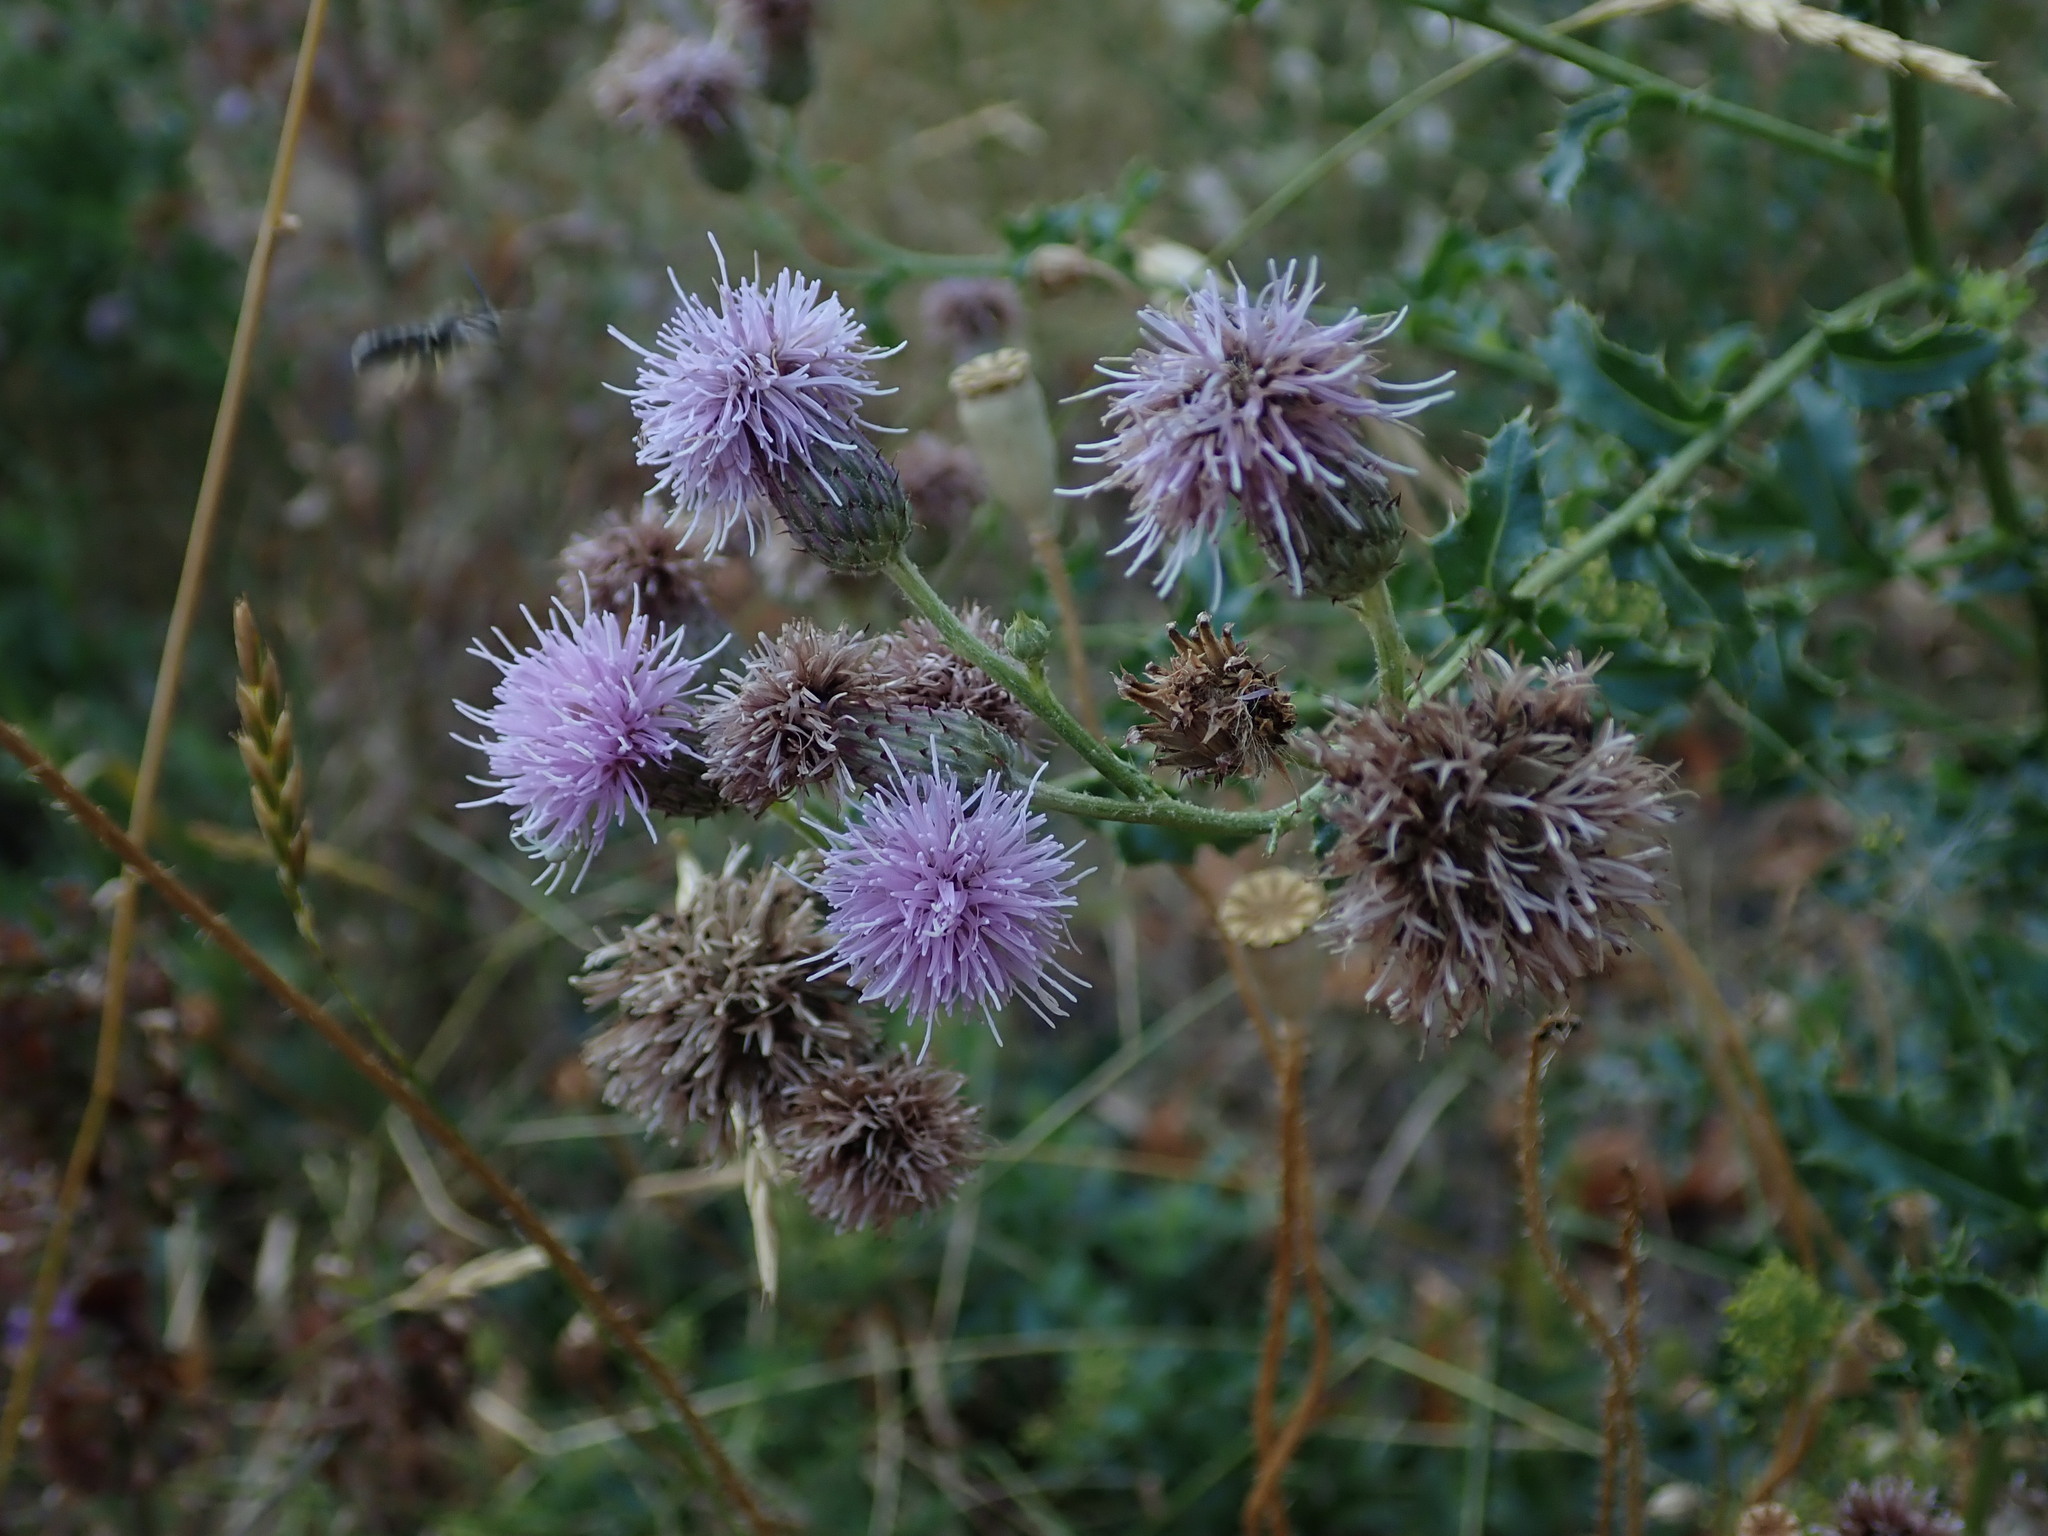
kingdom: Plantae
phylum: Tracheophyta
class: Magnoliopsida
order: Asterales
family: Asteraceae
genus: Cirsium
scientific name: Cirsium arvense
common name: Creeping thistle
